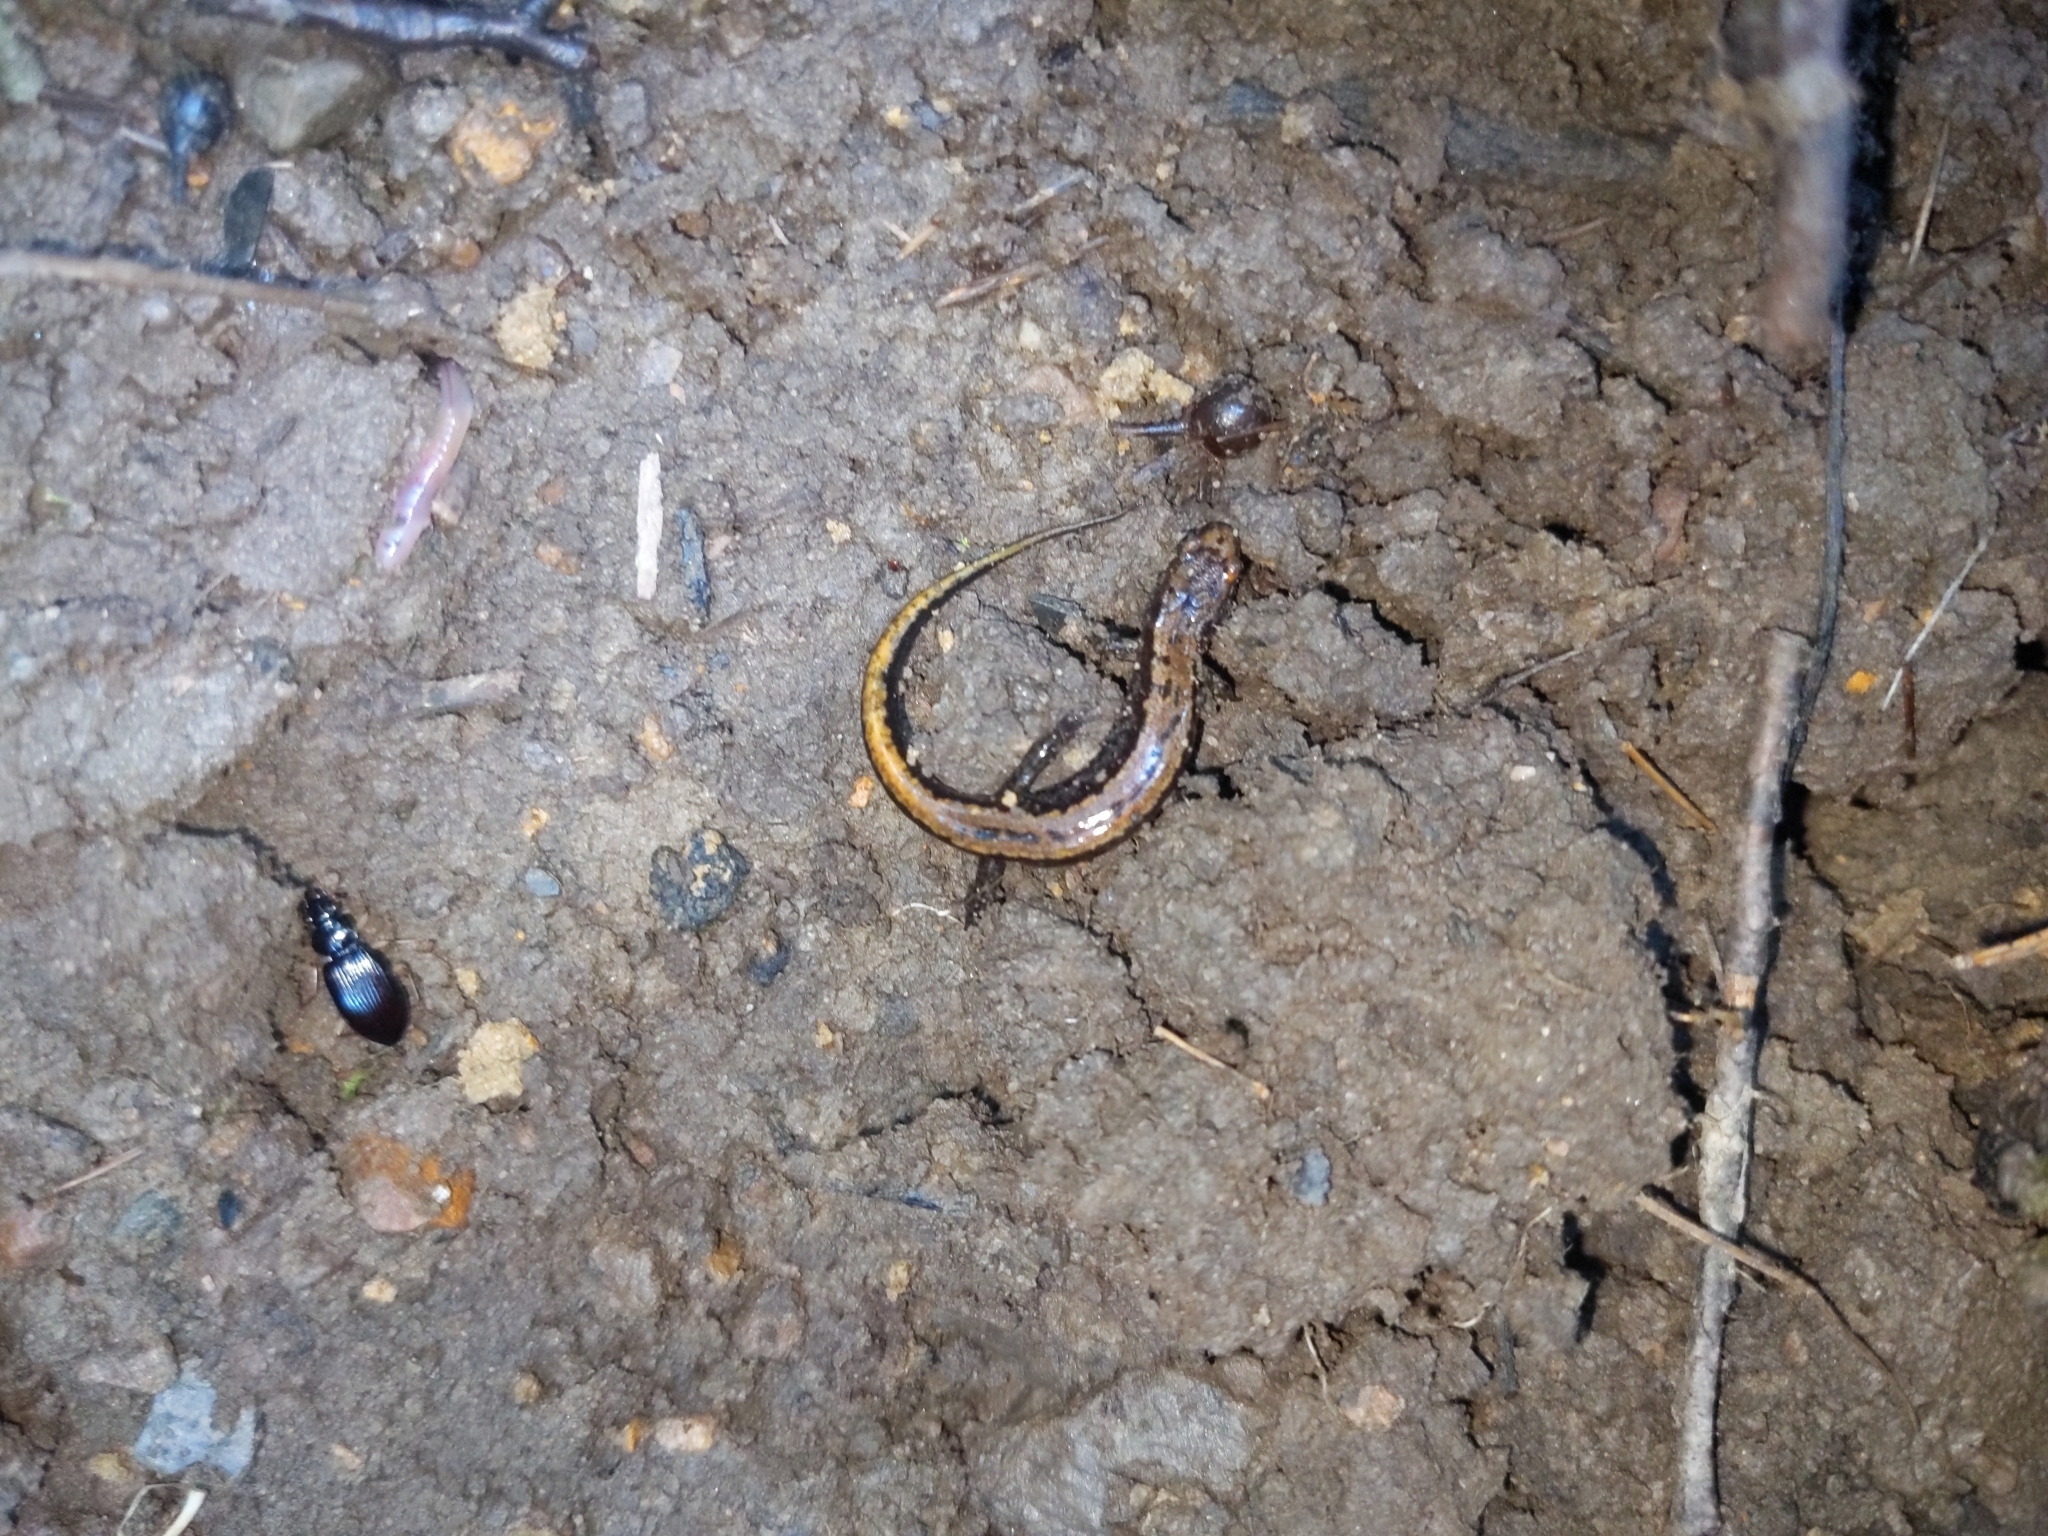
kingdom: Animalia
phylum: Chordata
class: Amphibia
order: Caudata
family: Plethodontidae
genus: Eurycea
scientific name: Eurycea bislineata
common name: Northern two-lined salamander
